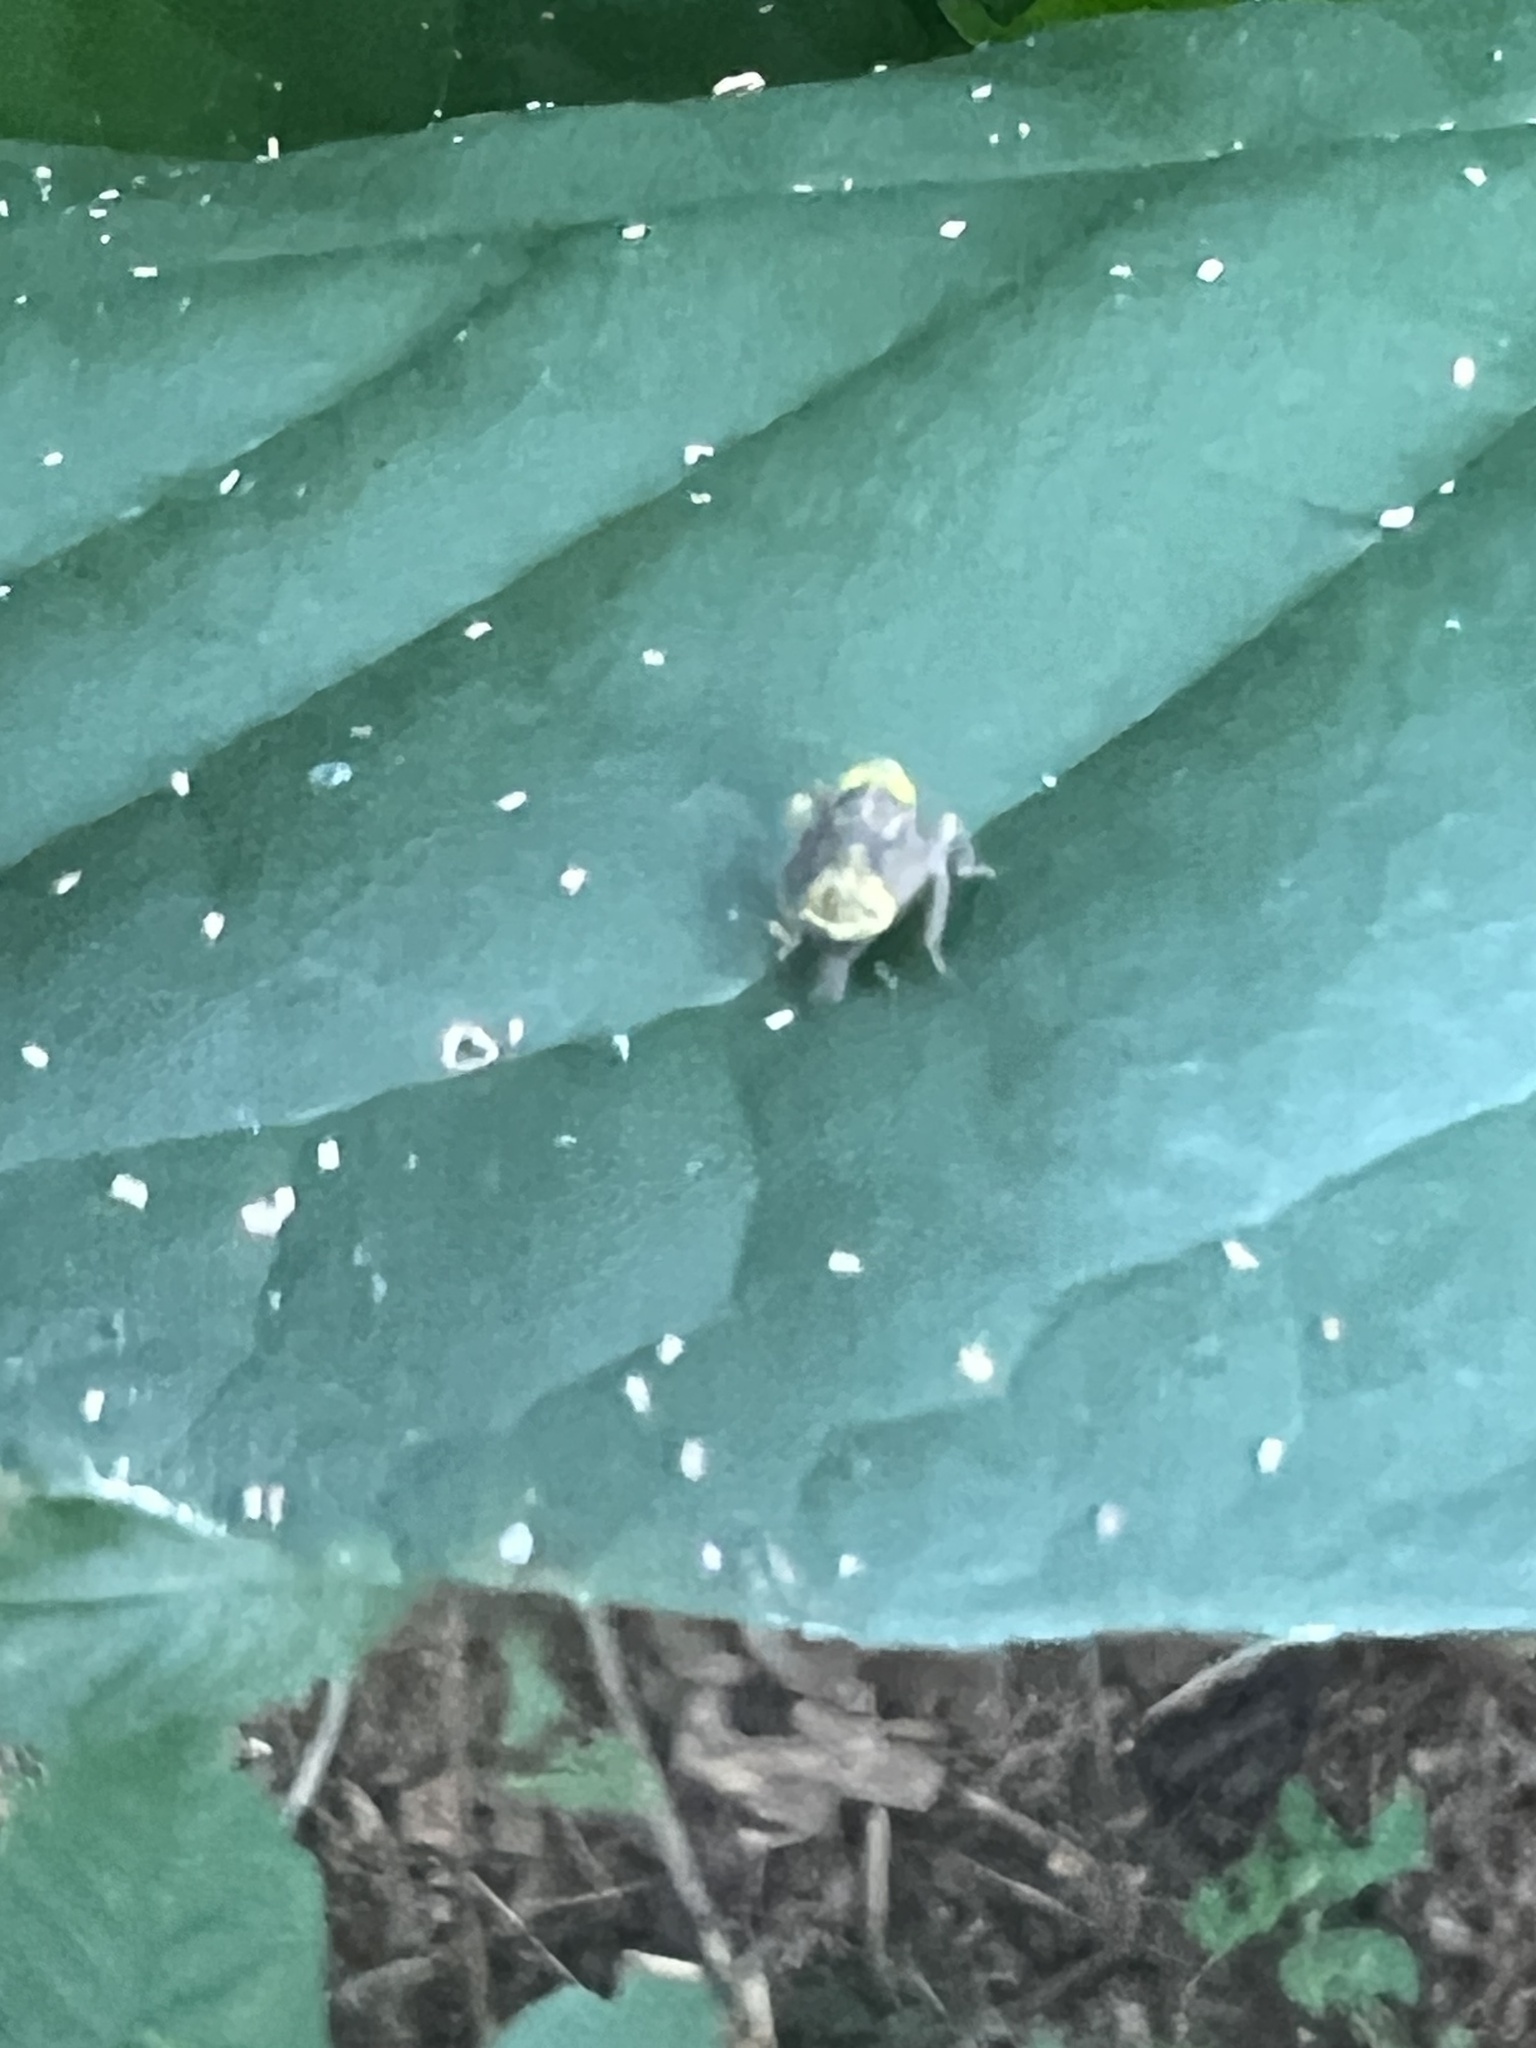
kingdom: Animalia
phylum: Arthropoda
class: Insecta
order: Hemiptera
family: Cicadellidae
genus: Jikradia
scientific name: Jikradia olitoria
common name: Coppery leafhopper
